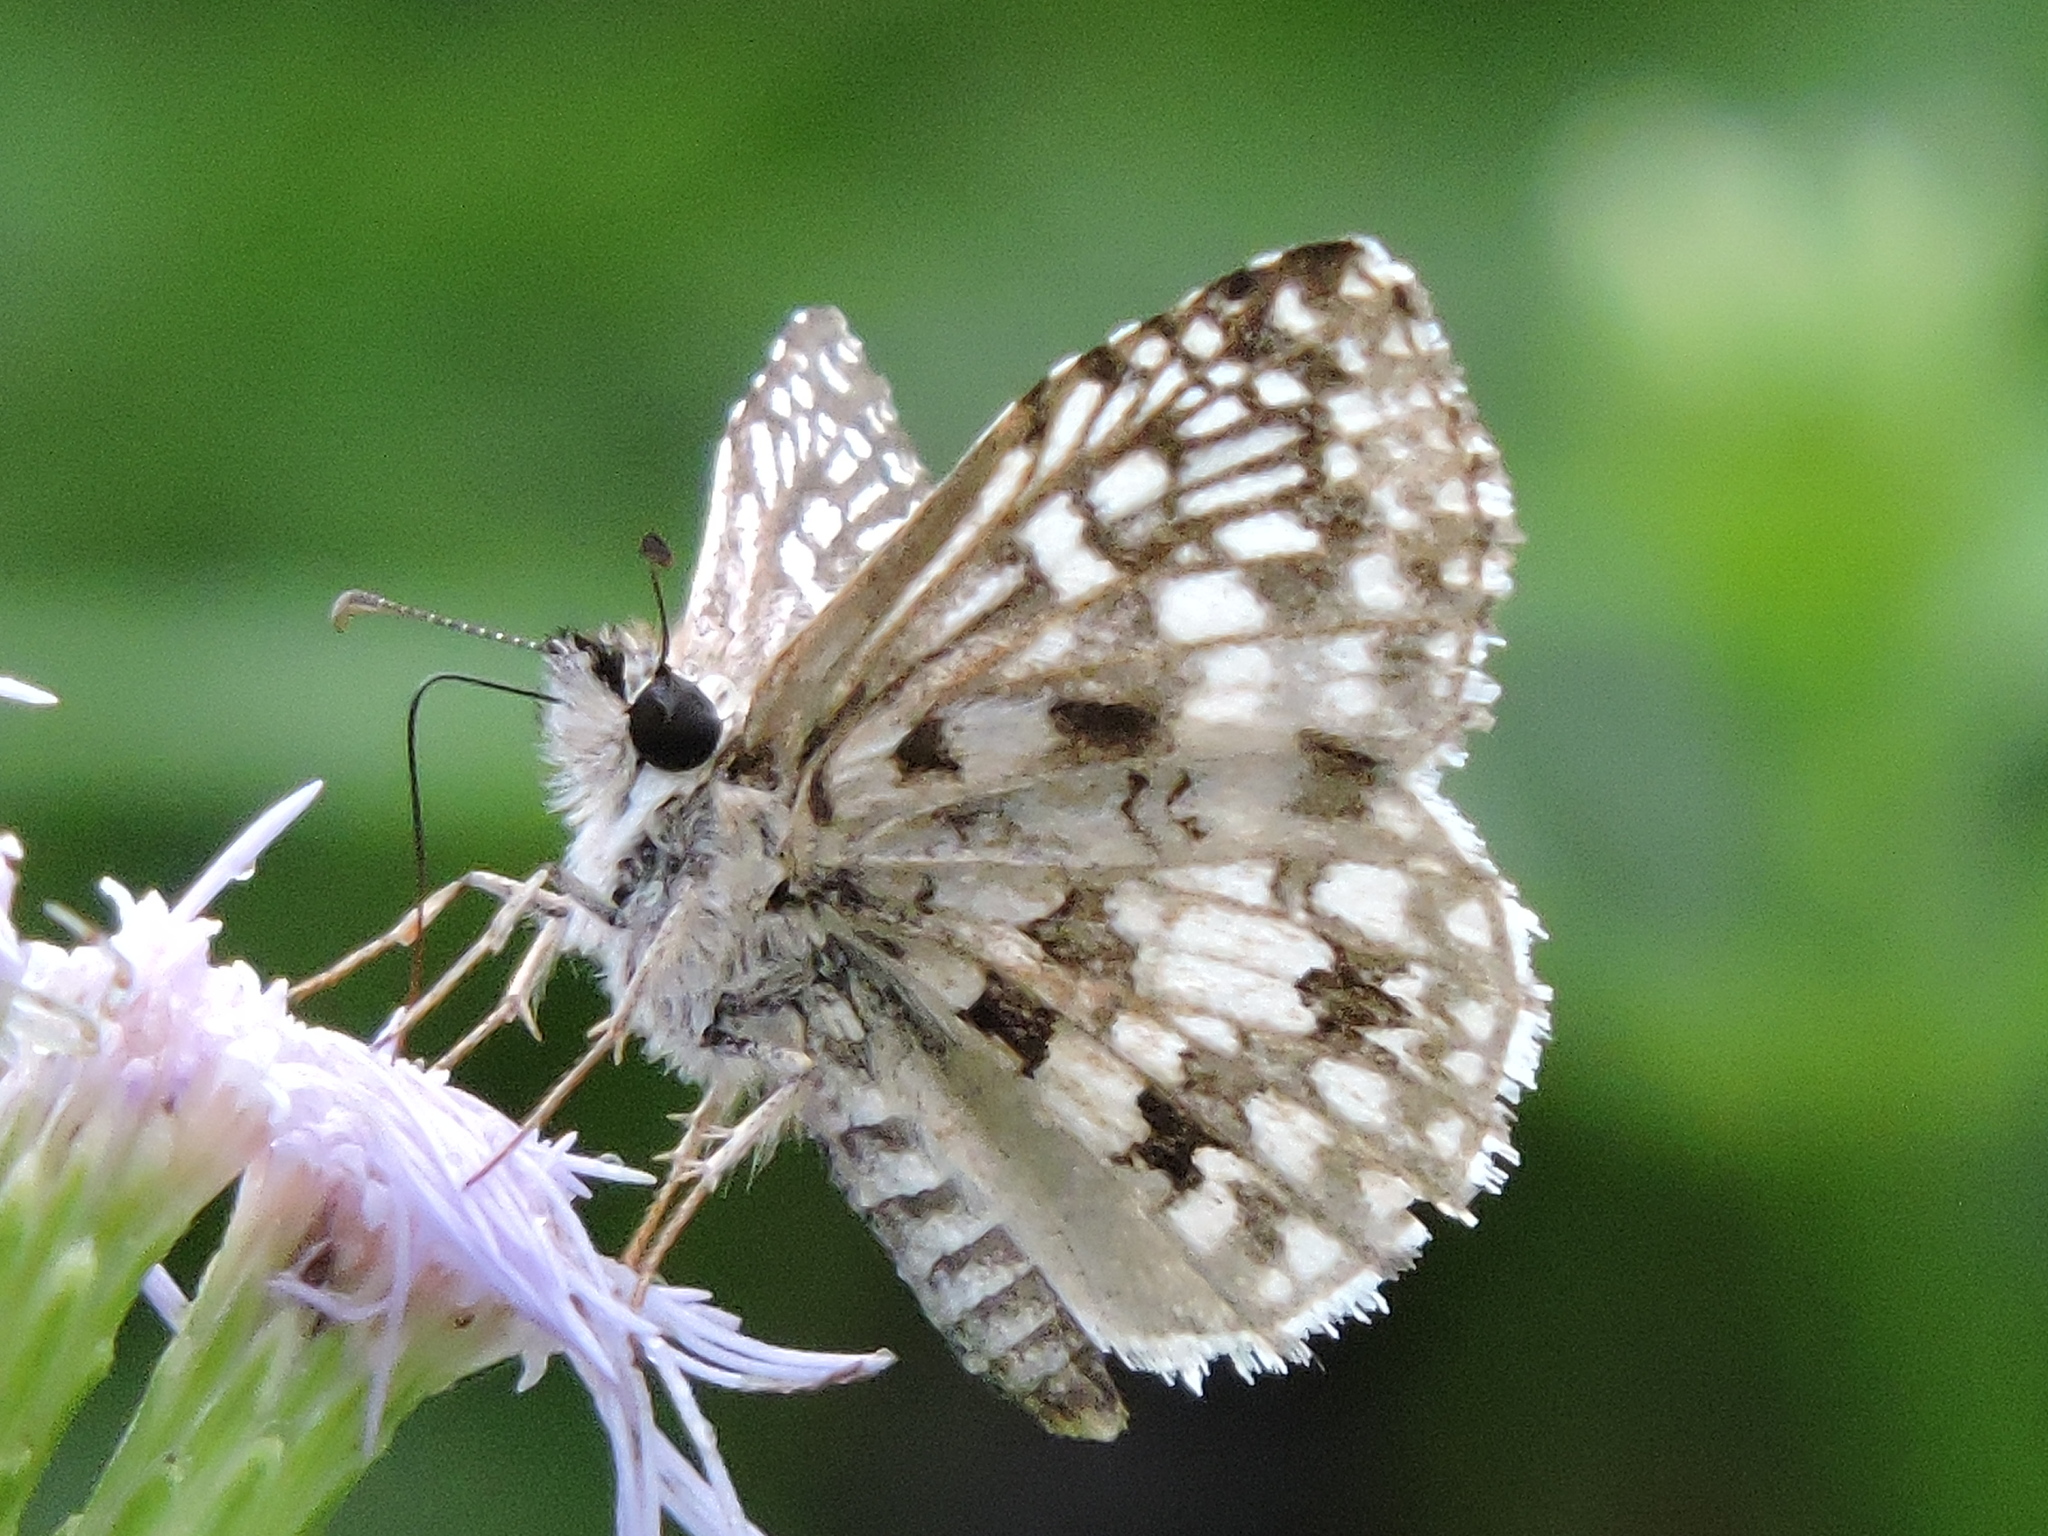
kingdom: Animalia
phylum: Arthropoda
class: Insecta
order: Lepidoptera
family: Hesperiidae
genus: Pyrgus
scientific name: Pyrgus oileus
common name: Tropical checkered-skipper
